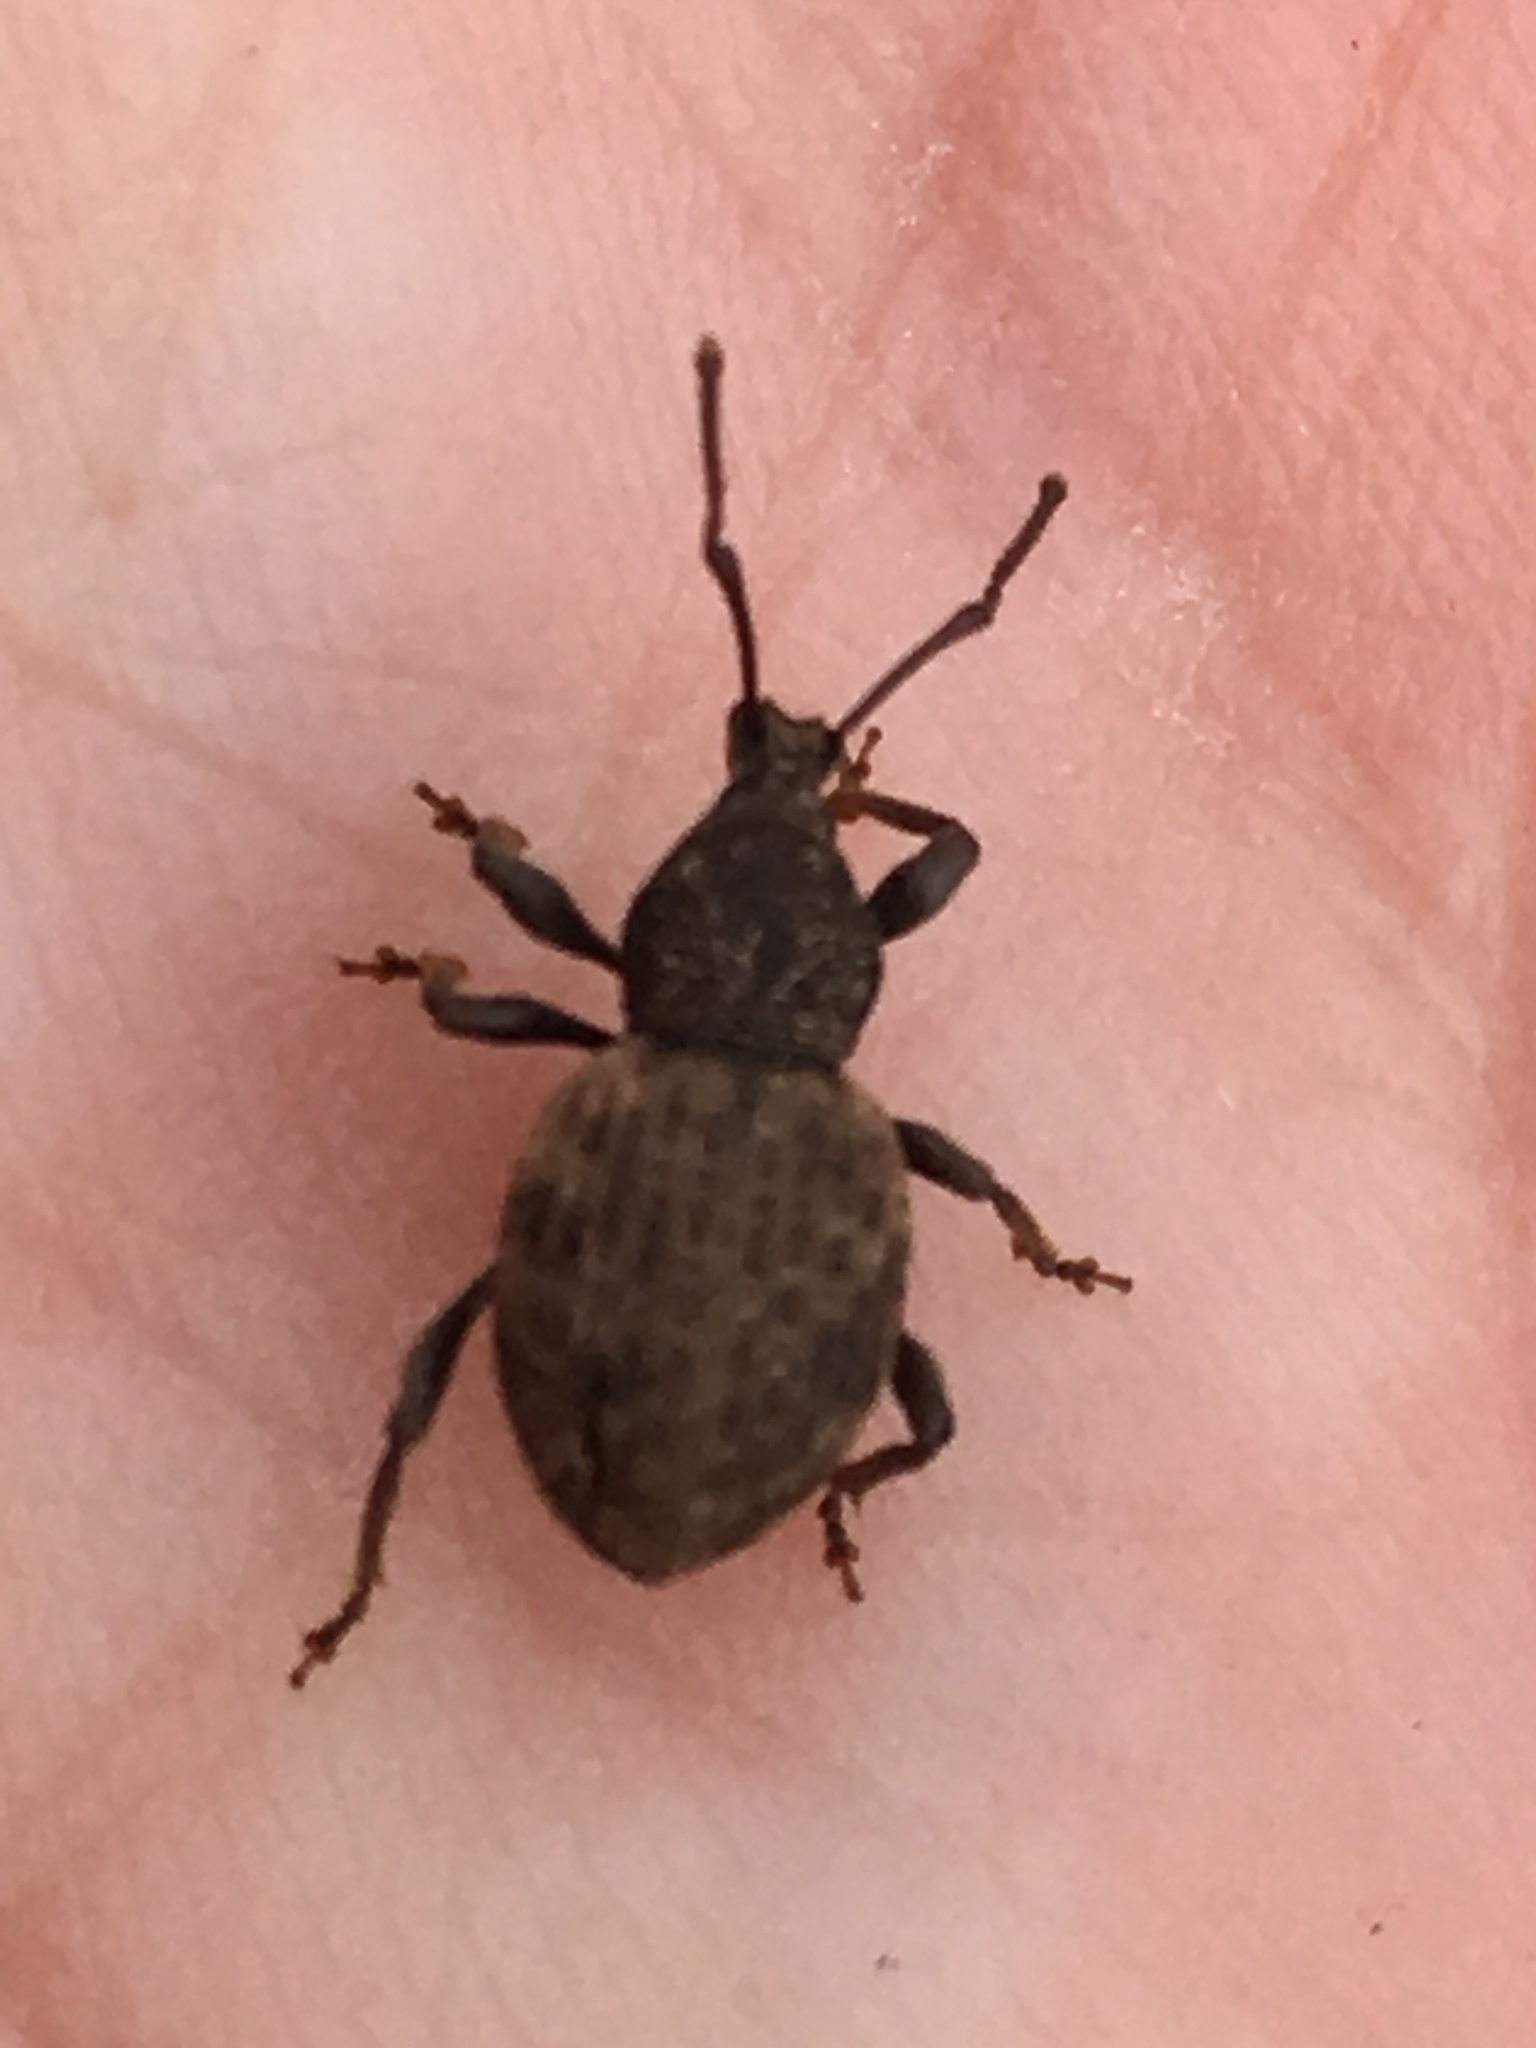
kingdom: Animalia
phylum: Arthropoda
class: Insecta
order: Coleoptera
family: Curculionidae
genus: Otiorhynchus
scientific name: Otiorhynchus raucus
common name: Weevil
